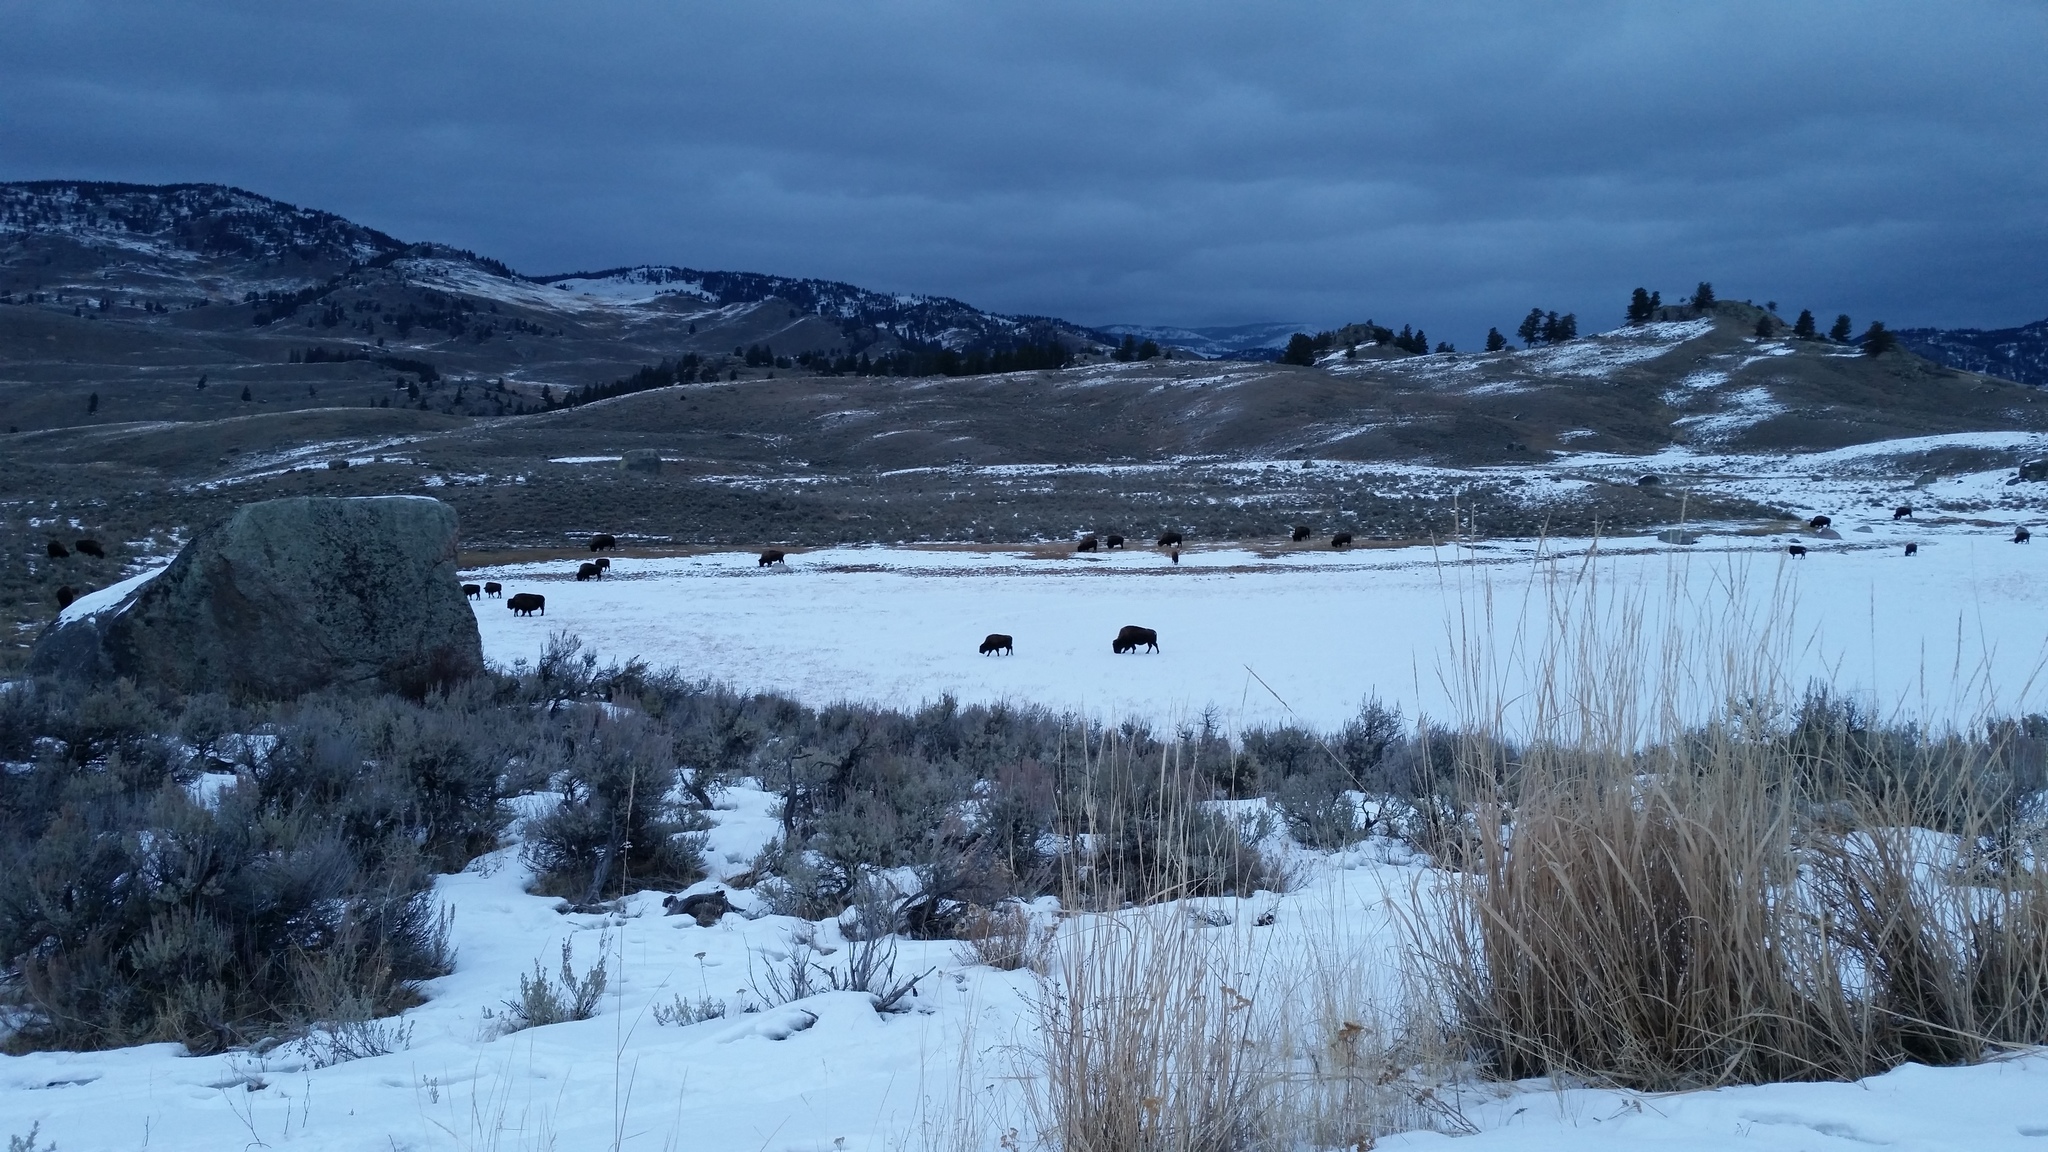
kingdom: Animalia
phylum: Chordata
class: Mammalia
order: Artiodactyla
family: Bovidae
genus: Bison
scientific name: Bison bison
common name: American bison
